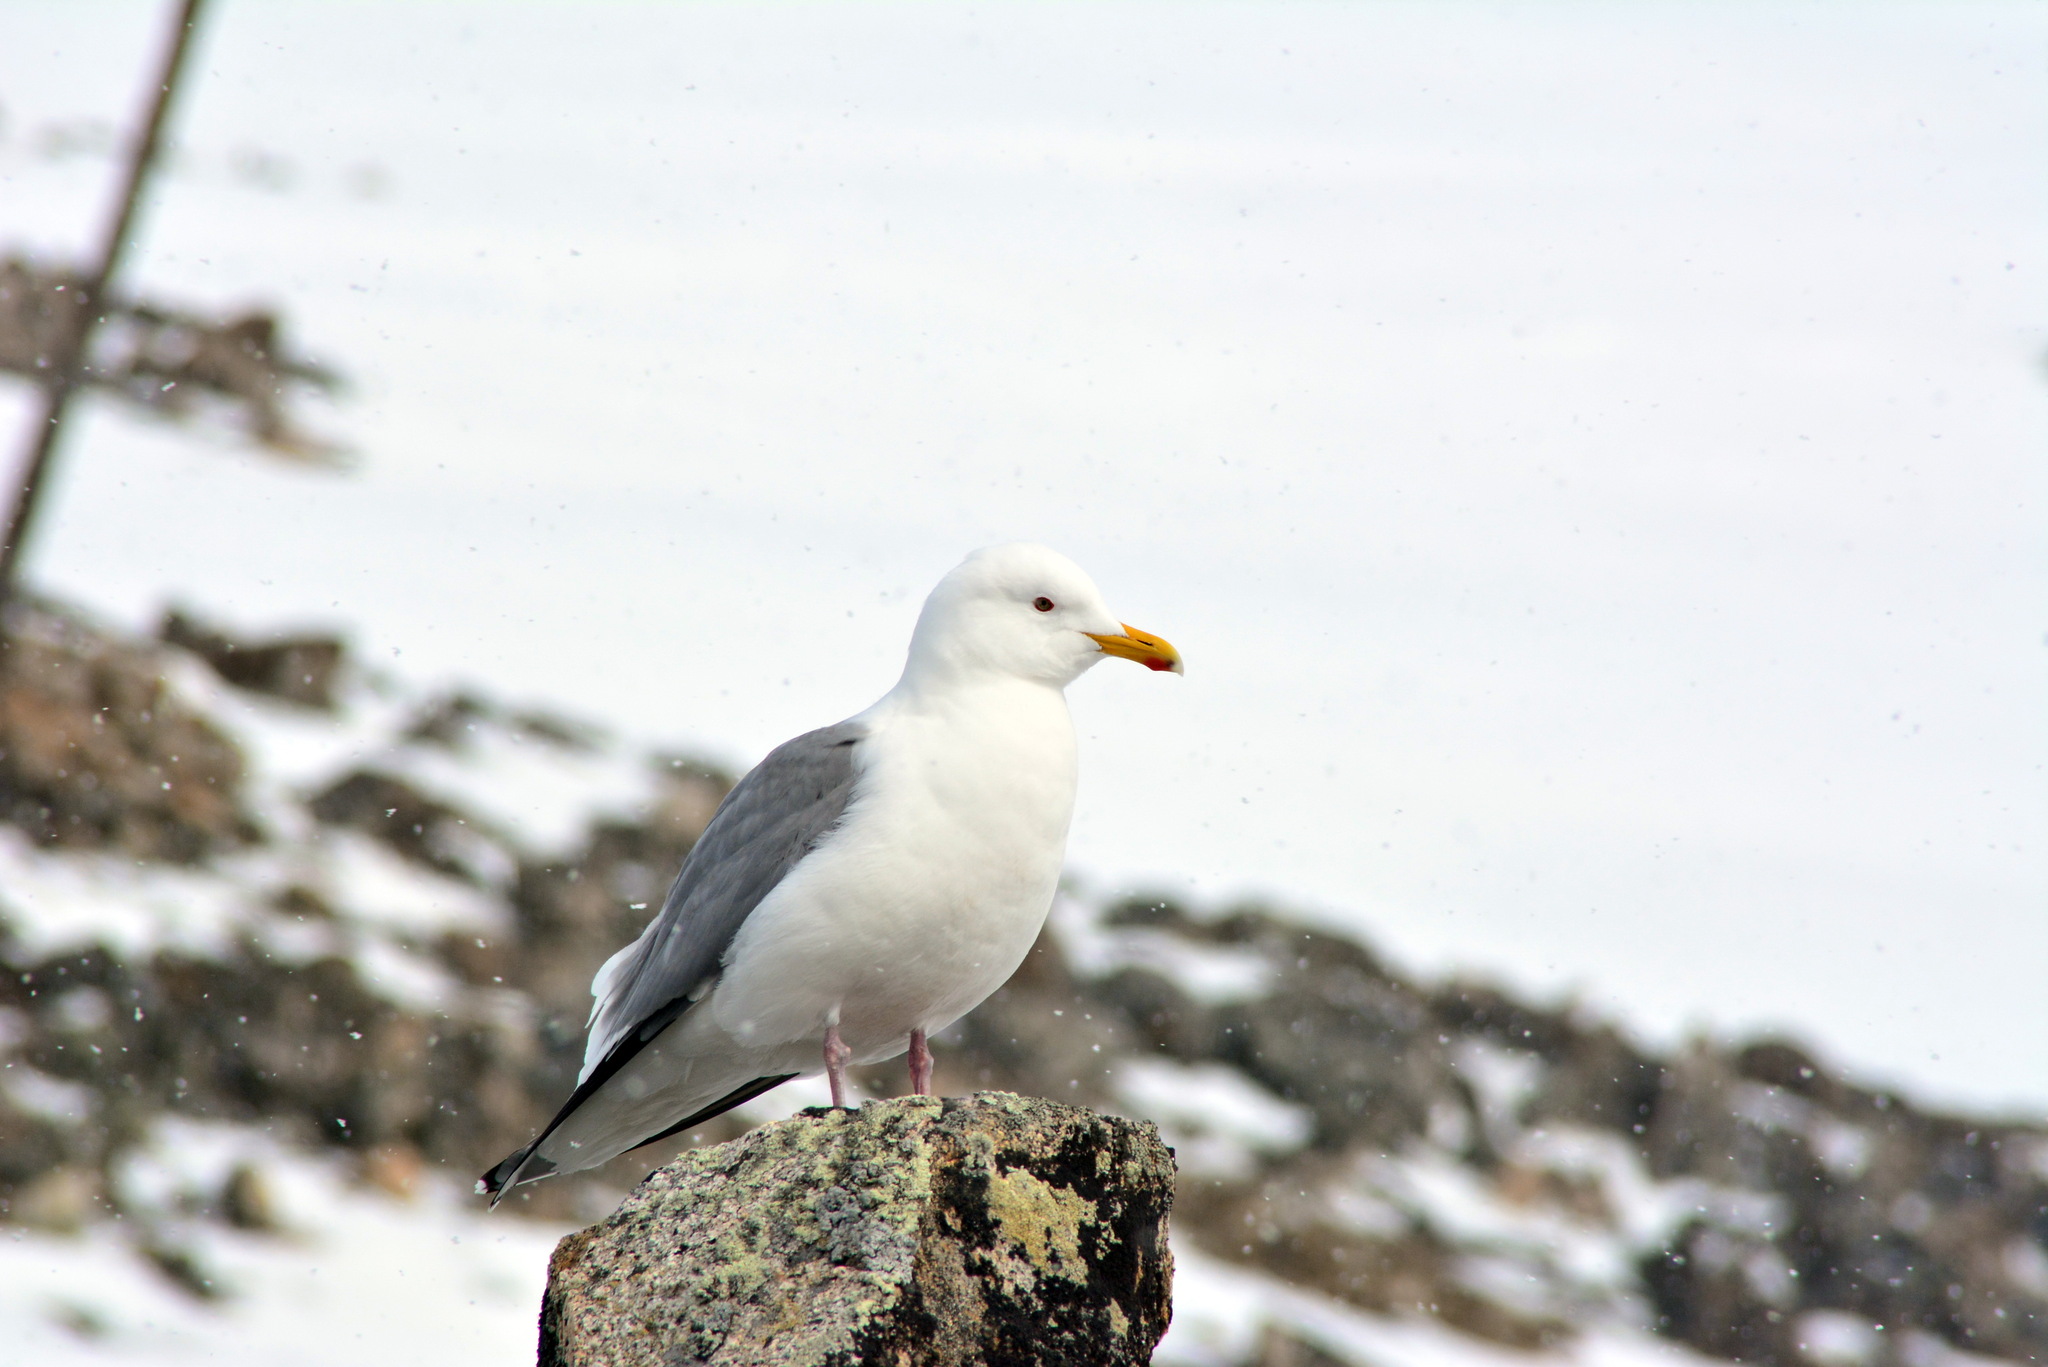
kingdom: Animalia
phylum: Chordata
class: Aves
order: Charadriiformes
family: Laridae
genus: Larus
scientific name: Larus argentatus
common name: Herring gull
